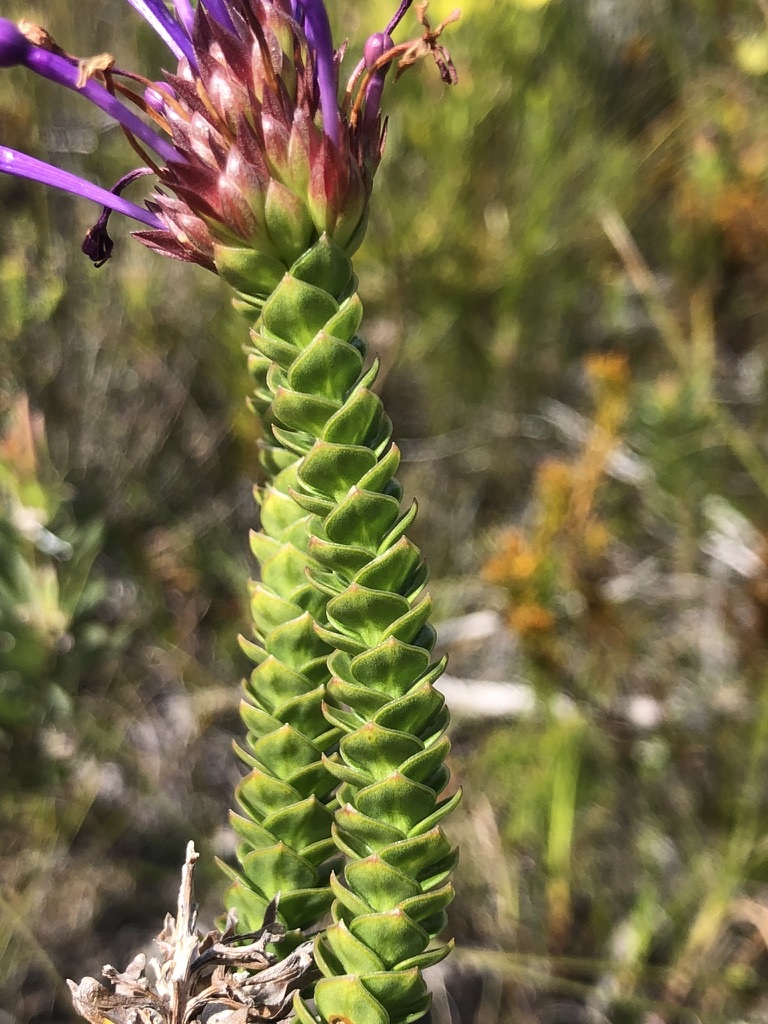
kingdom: Plantae
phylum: Tracheophyta
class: Magnoliopsida
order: Asterales
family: Campanulaceae
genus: Rhigiophyllum
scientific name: Rhigiophyllum squarrosum
